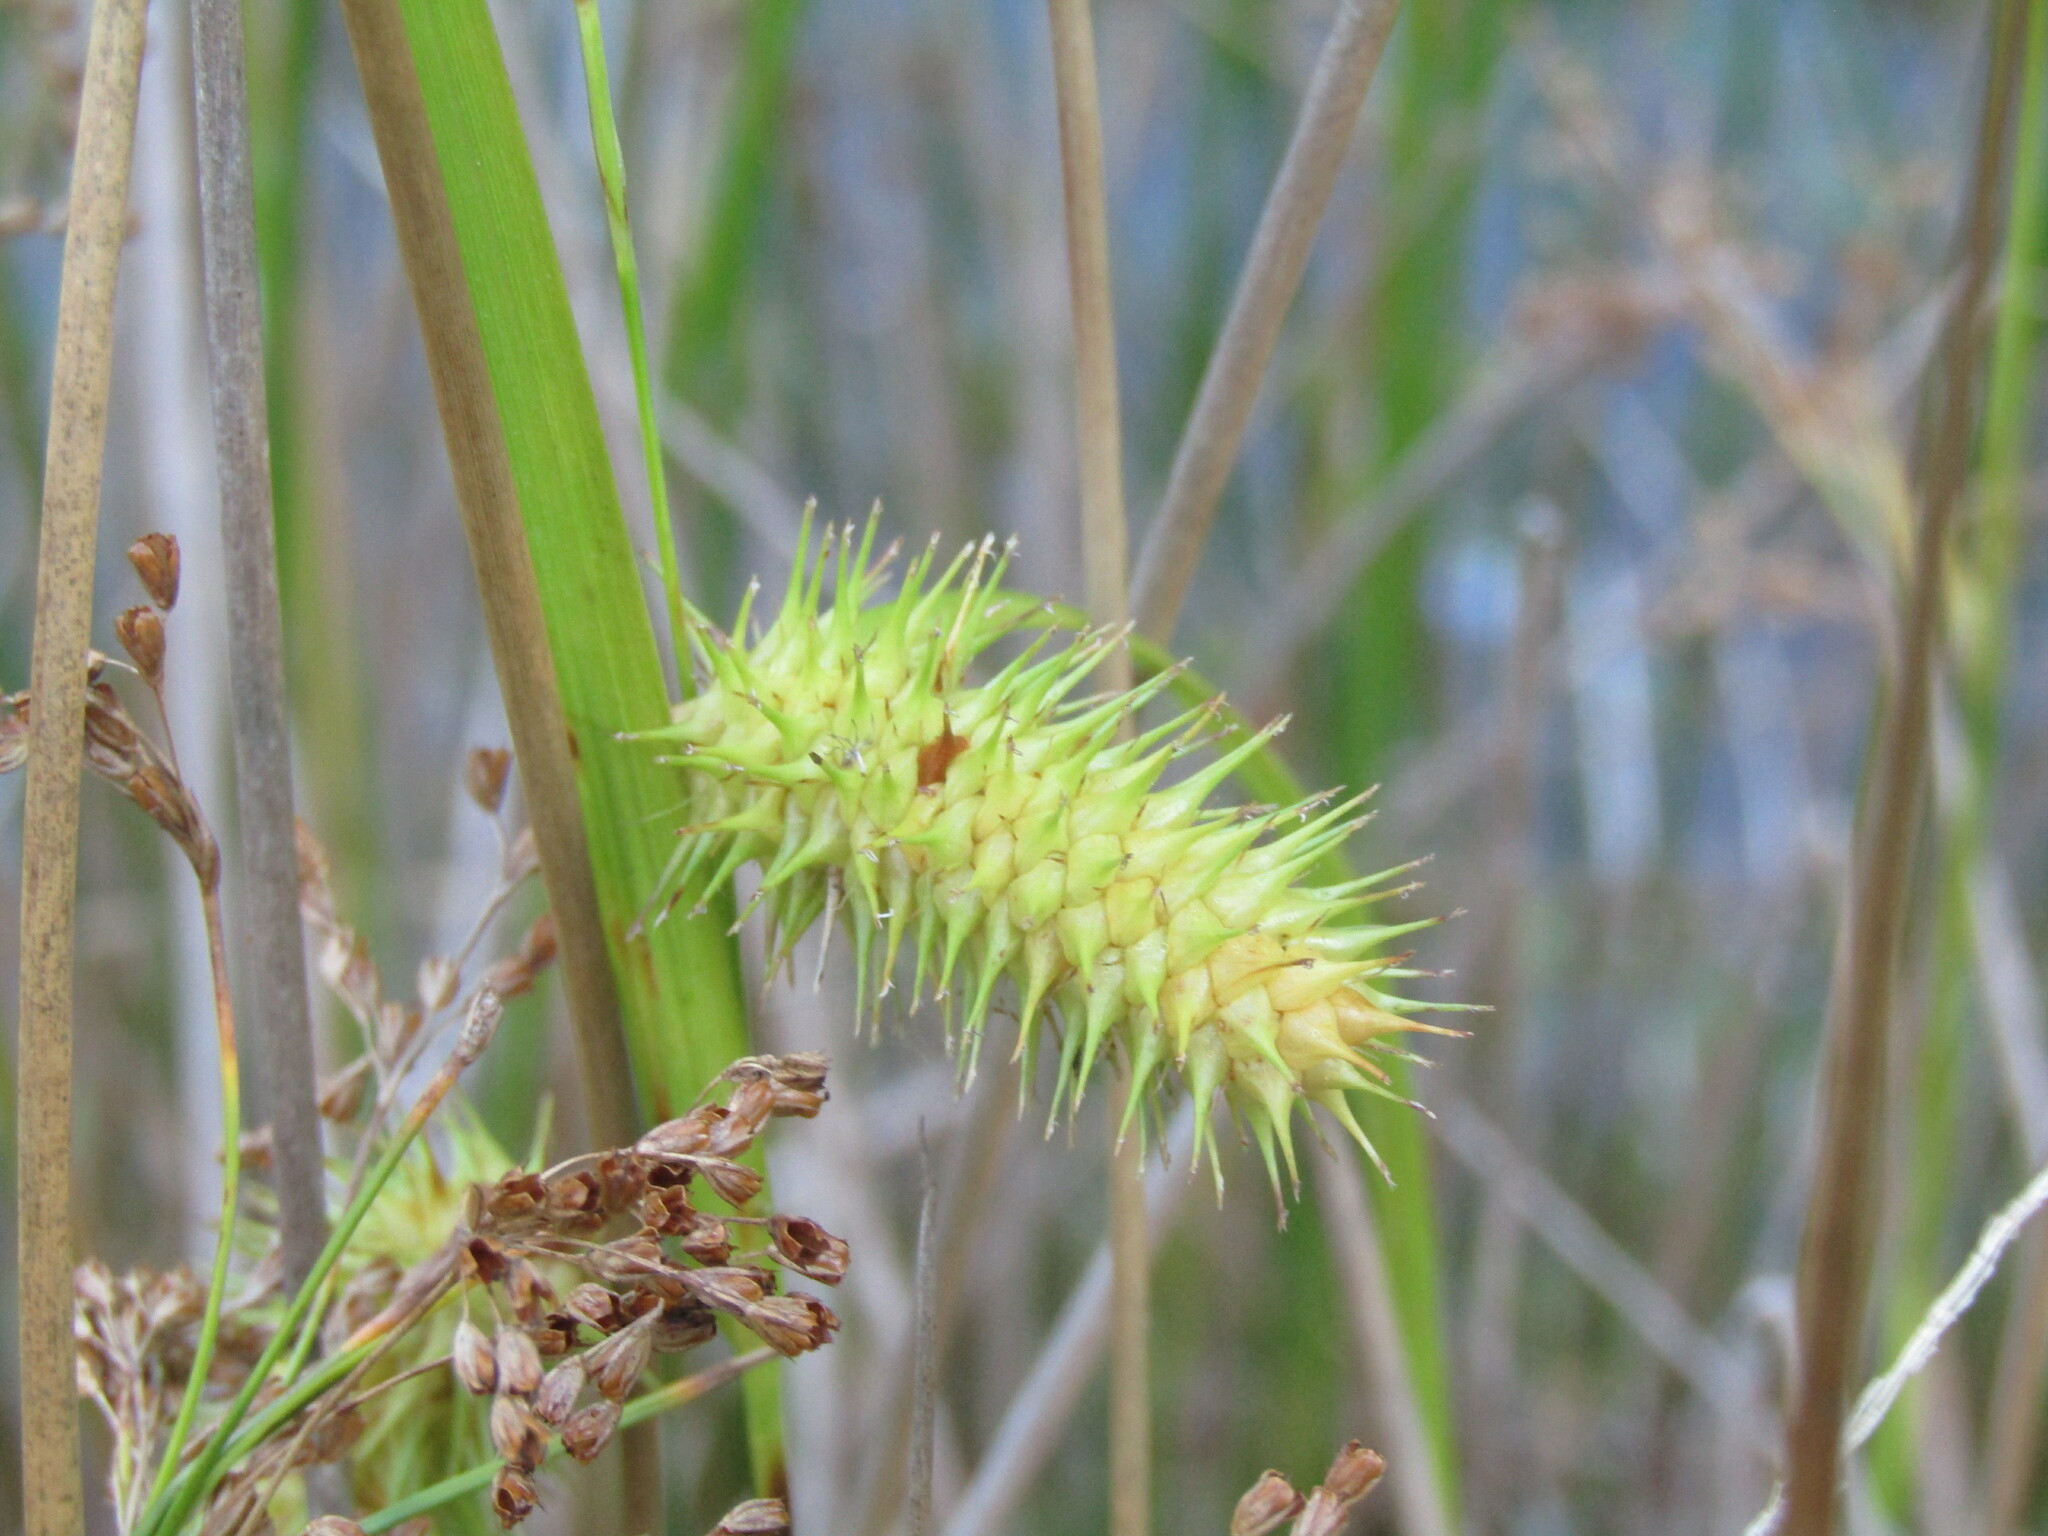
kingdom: Plantae
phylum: Tracheophyta
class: Liliopsida
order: Poales
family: Cyperaceae
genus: Carex
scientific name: Carex lurida
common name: Sallow sedge
